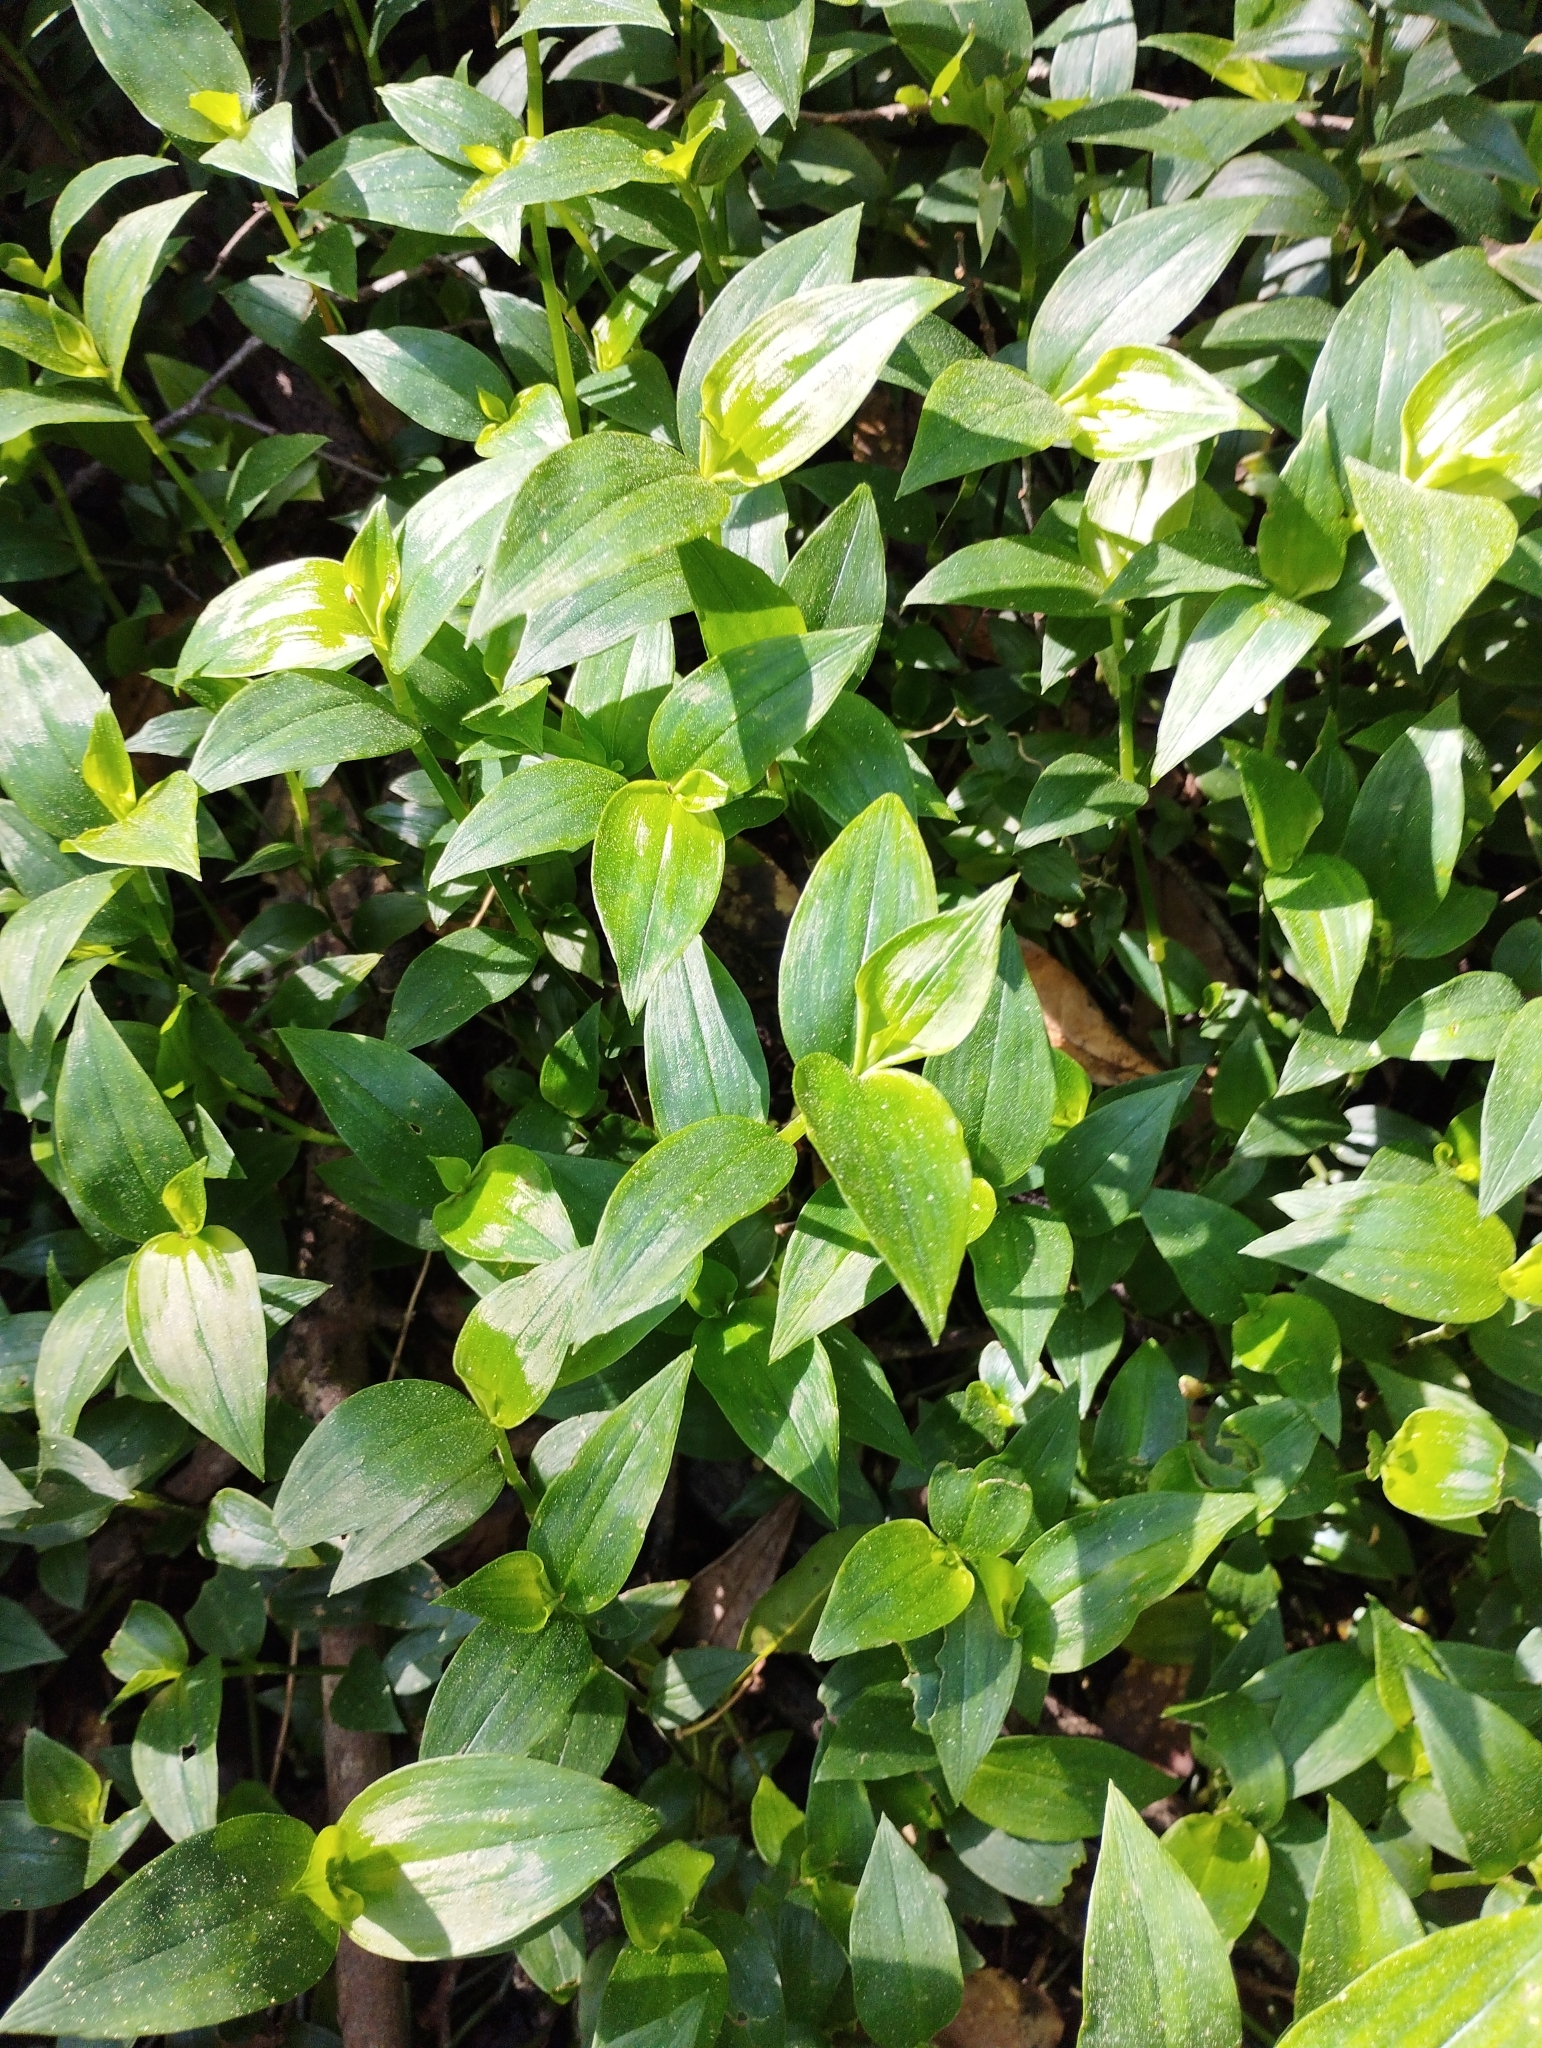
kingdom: Plantae
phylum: Tracheophyta
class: Liliopsida
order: Commelinales
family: Commelinaceae
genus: Tradescantia
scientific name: Tradescantia fluminensis
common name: Wandering-jew
